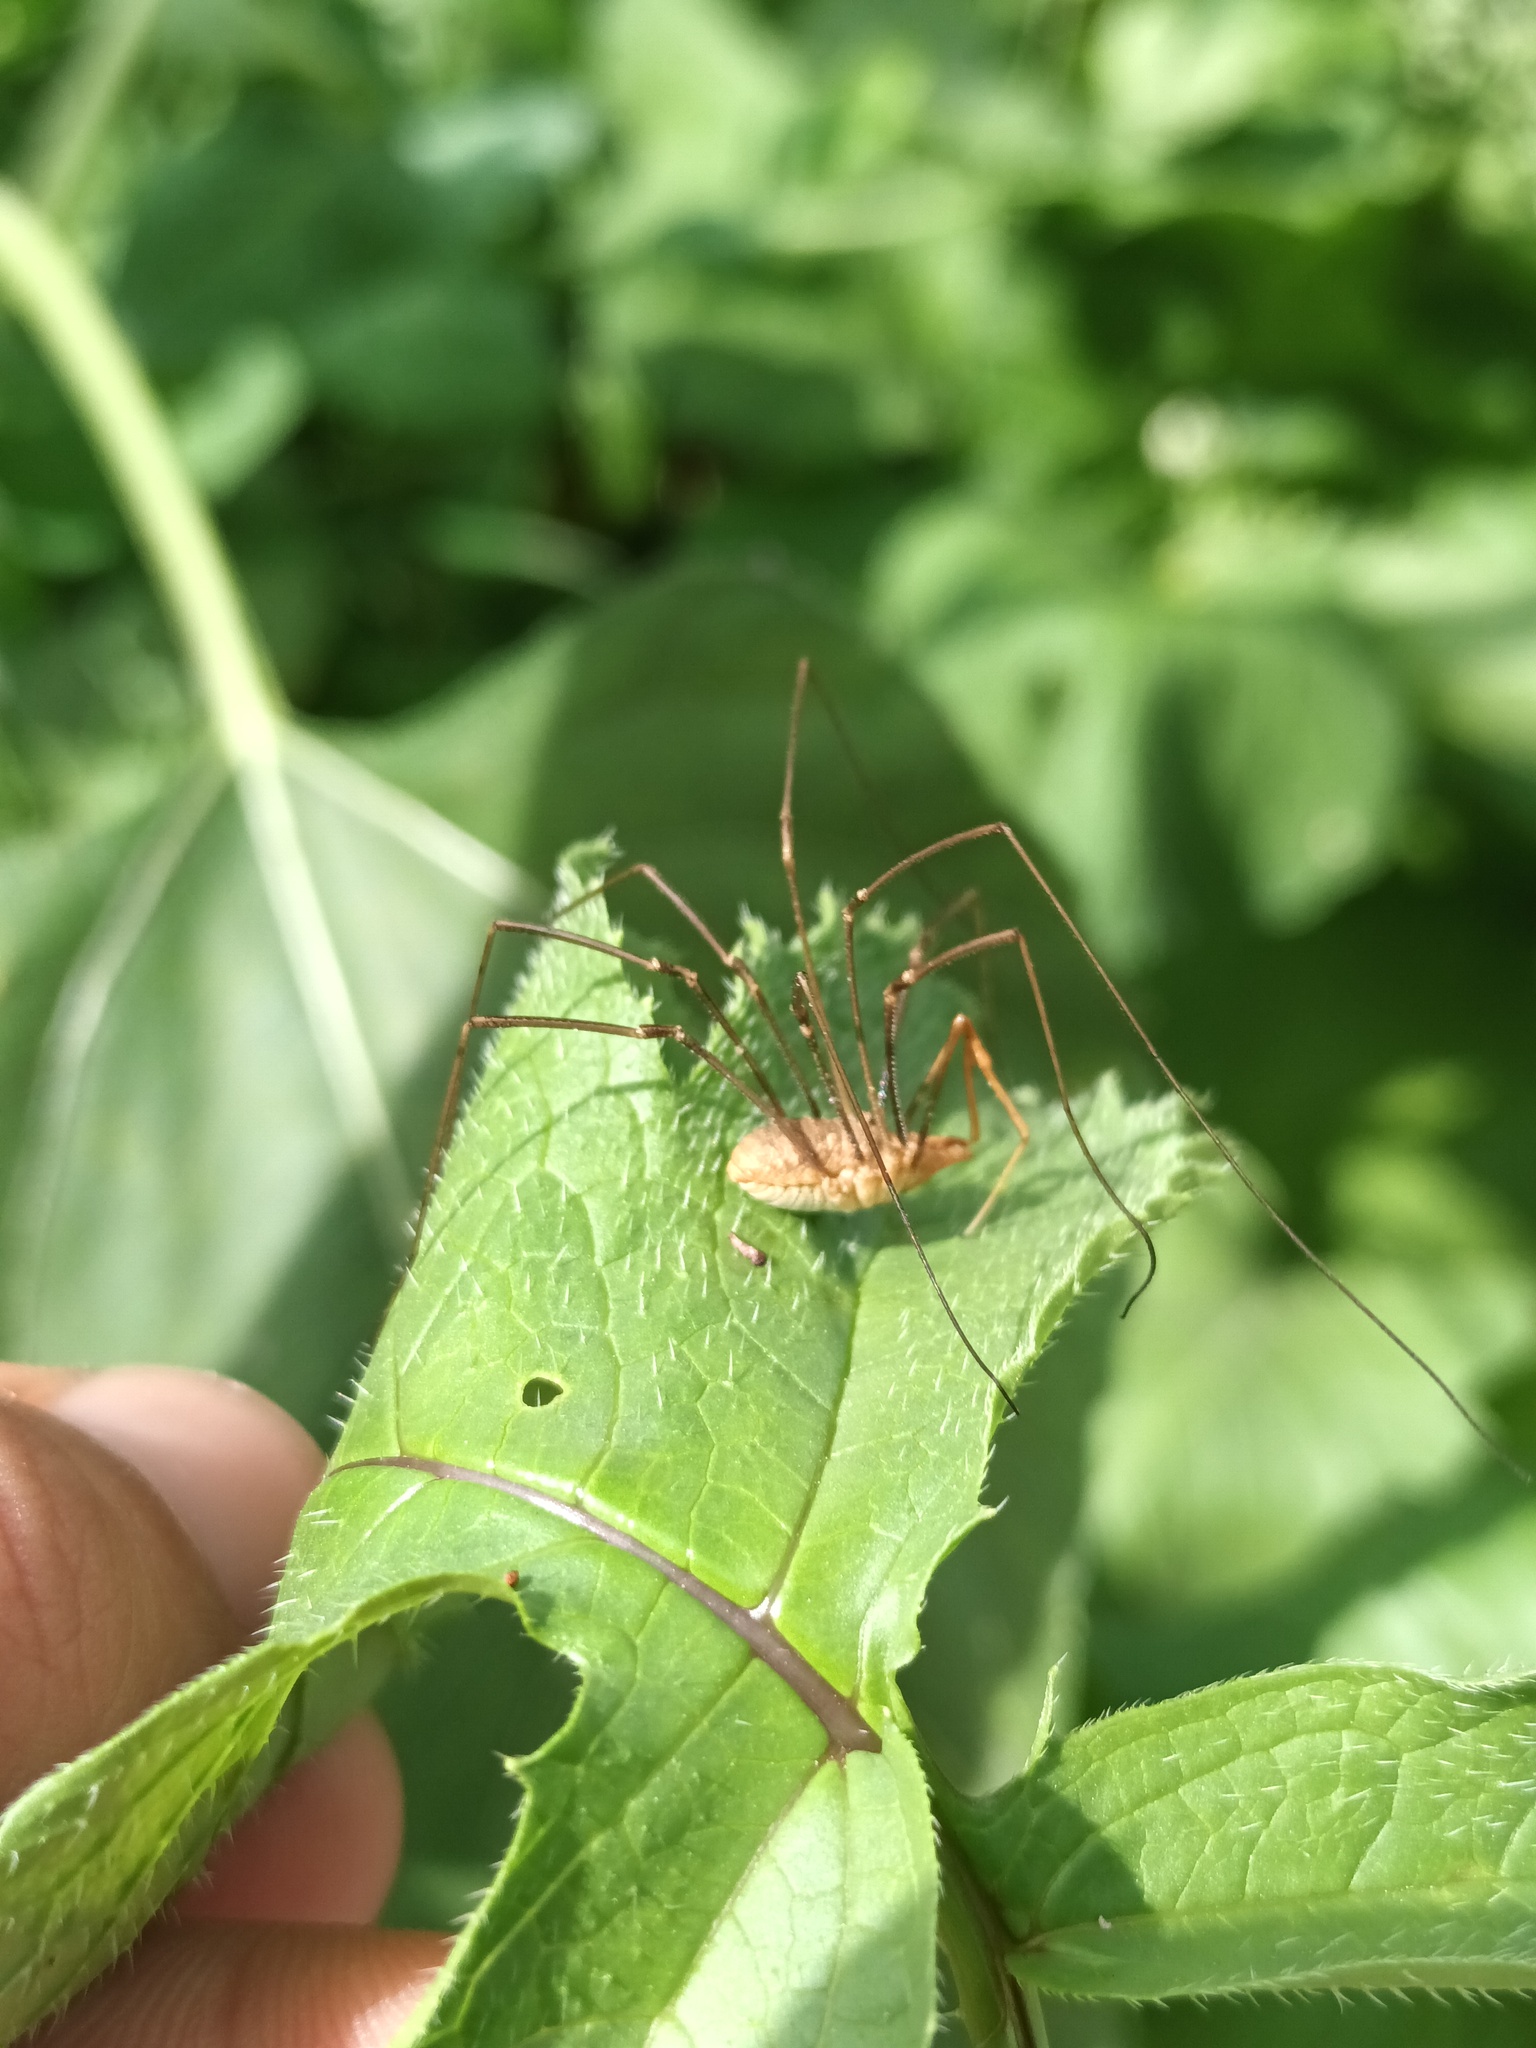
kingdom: Animalia
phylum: Arthropoda
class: Arachnida
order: Opiliones
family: Phalangiidae
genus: Phalangium
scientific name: Phalangium opilio
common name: Daddy longleg
